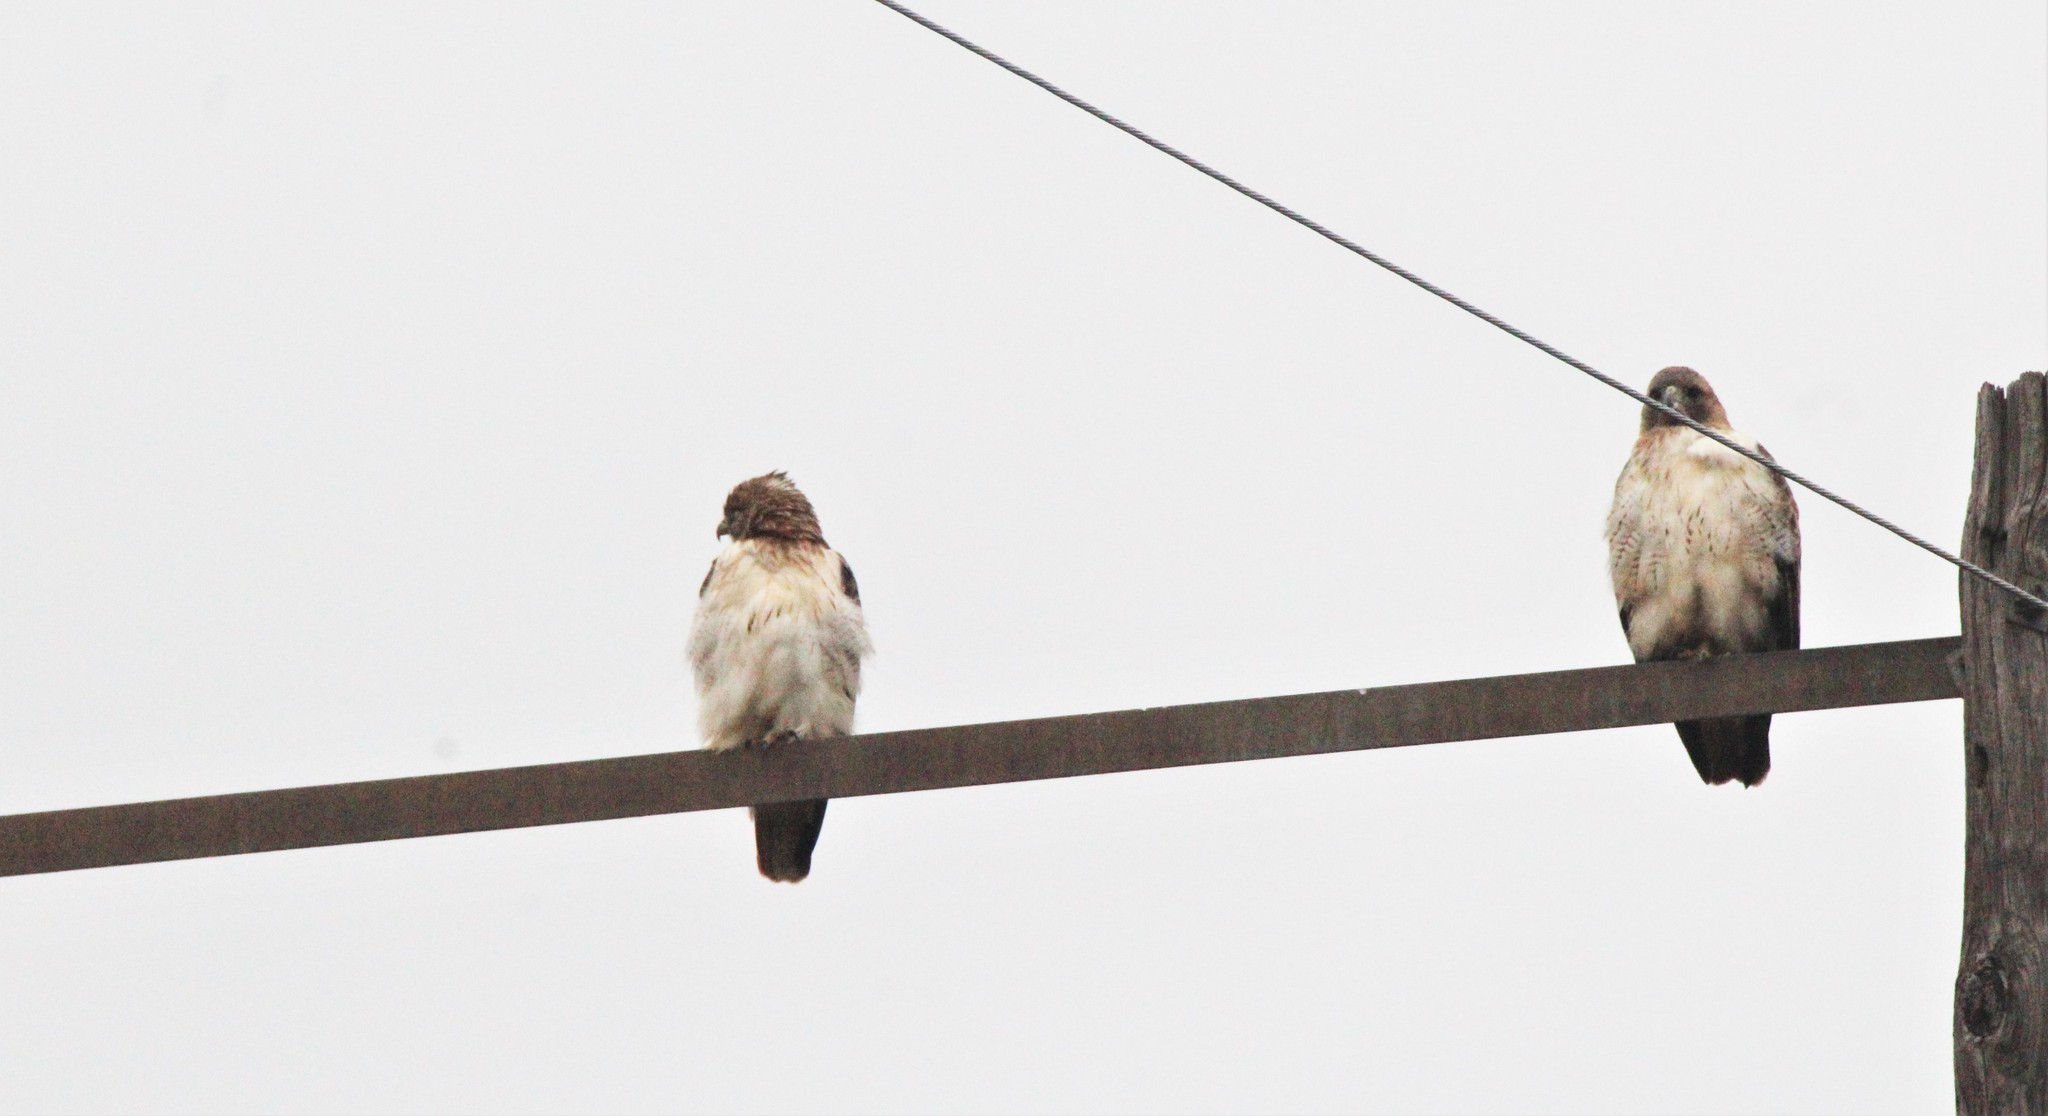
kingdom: Animalia
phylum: Chordata
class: Aves
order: Accipitriformes
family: Accipitridae
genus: Buteo
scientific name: Buteo jamaicensis
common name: Red-tailed hawk
